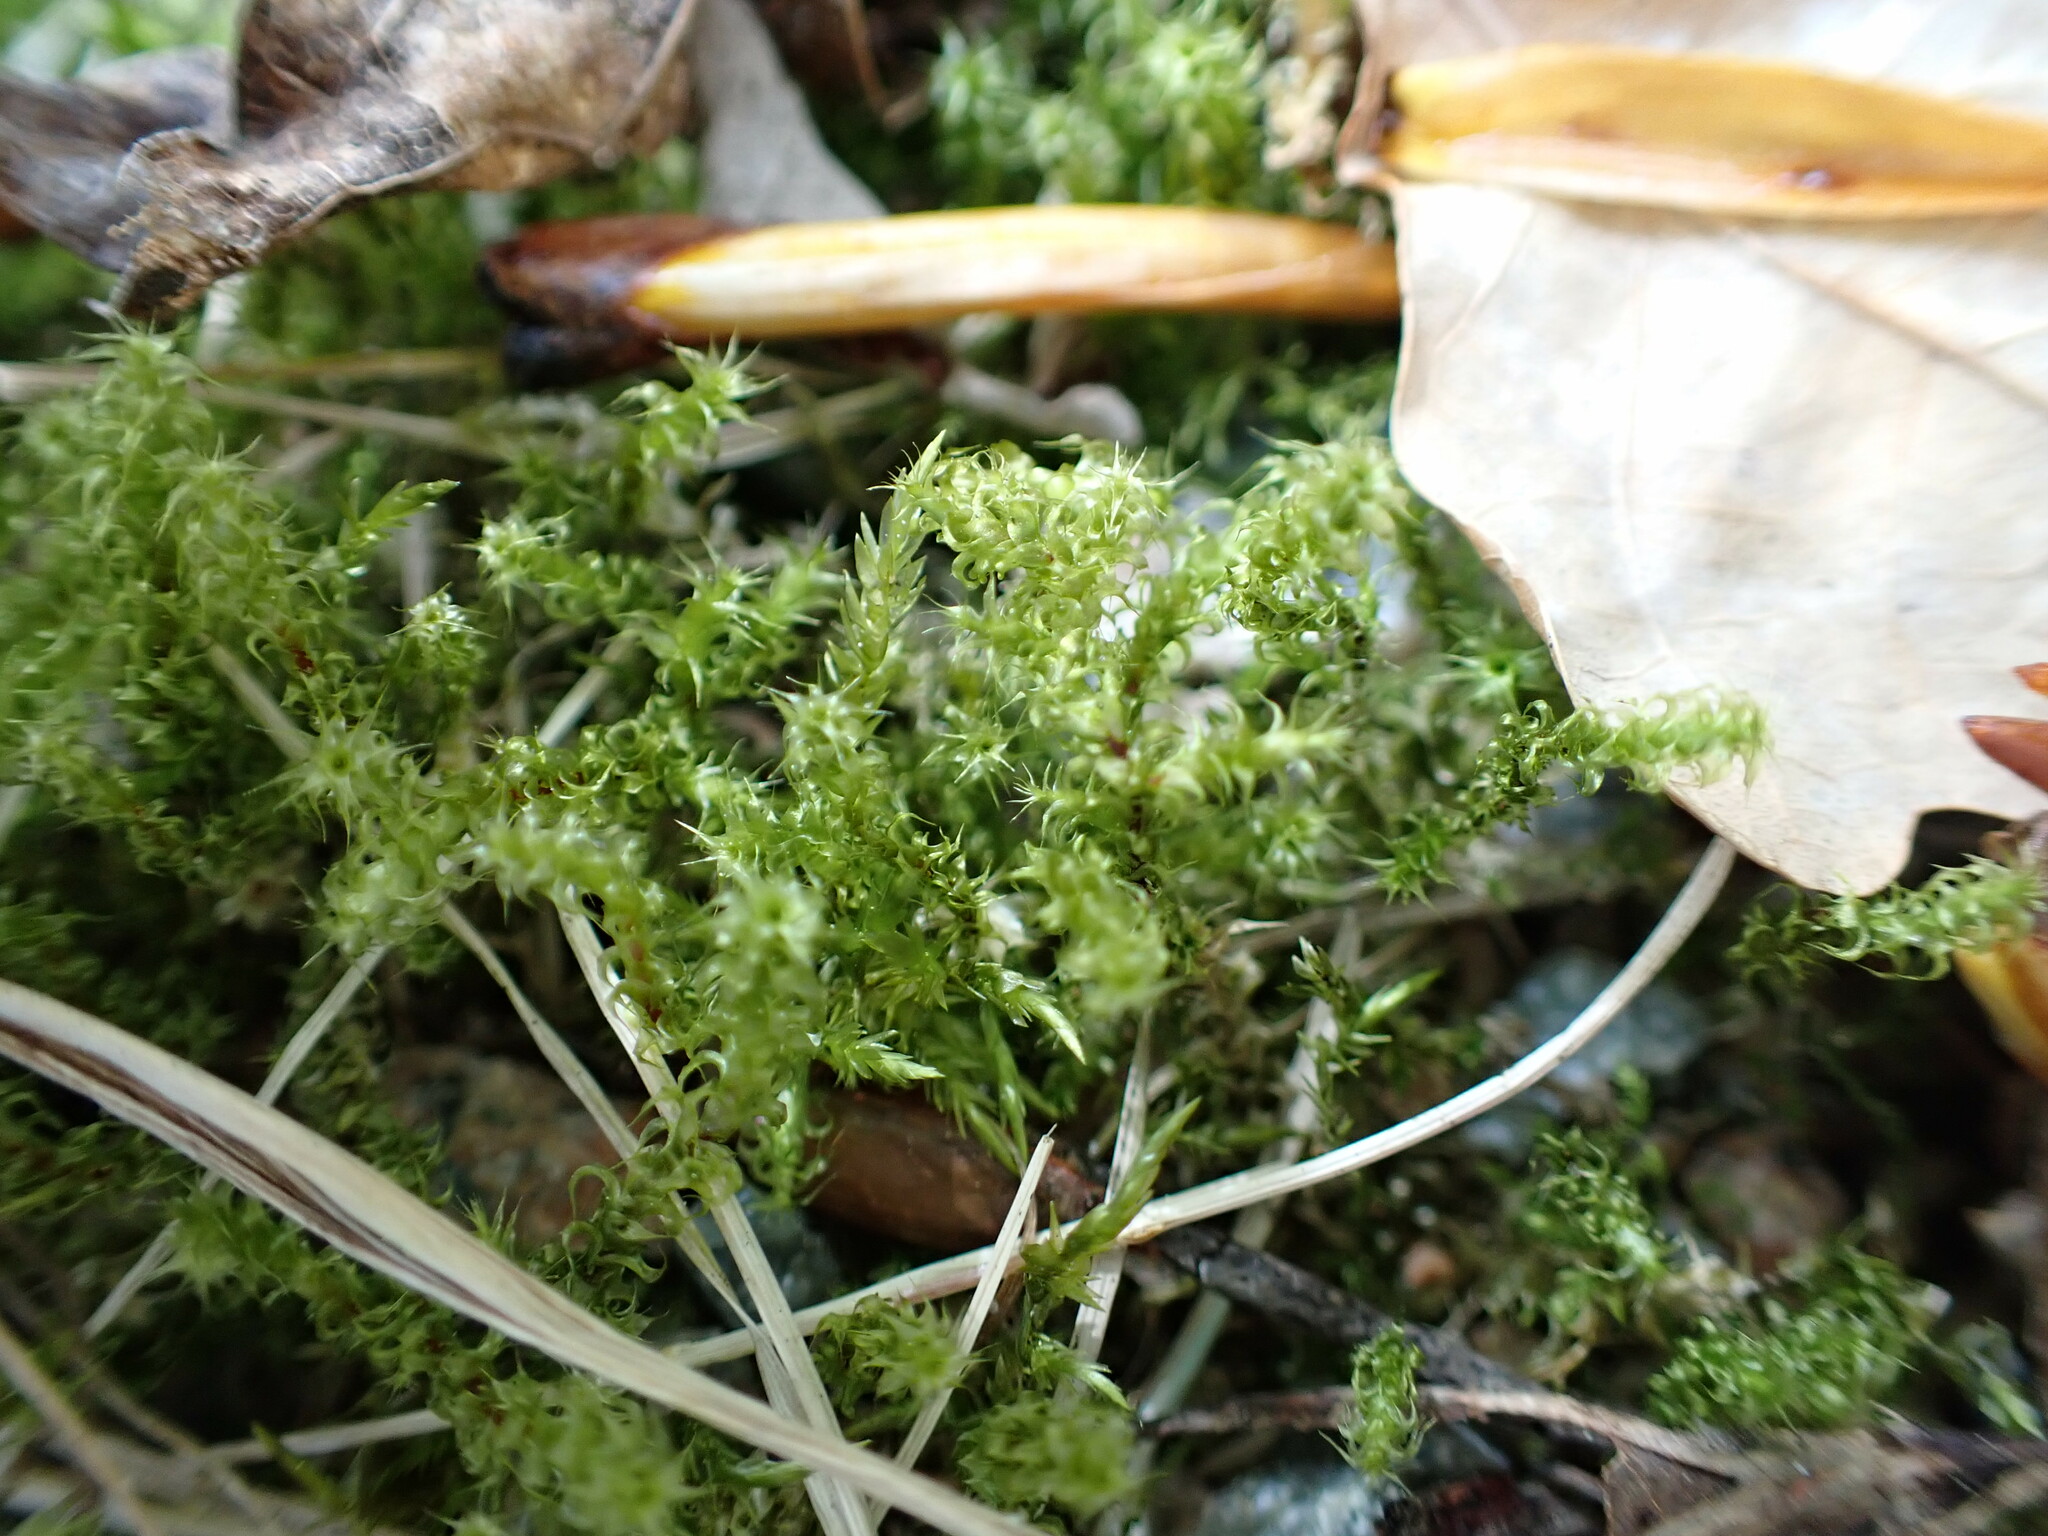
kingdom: Plantae
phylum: Bryophyta
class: Bryopsida
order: Hypnales
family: Hylocomiaceae
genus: Rhytidiadelphus
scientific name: Rhytidiadelphus squarrosus
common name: Springy turf-moss
